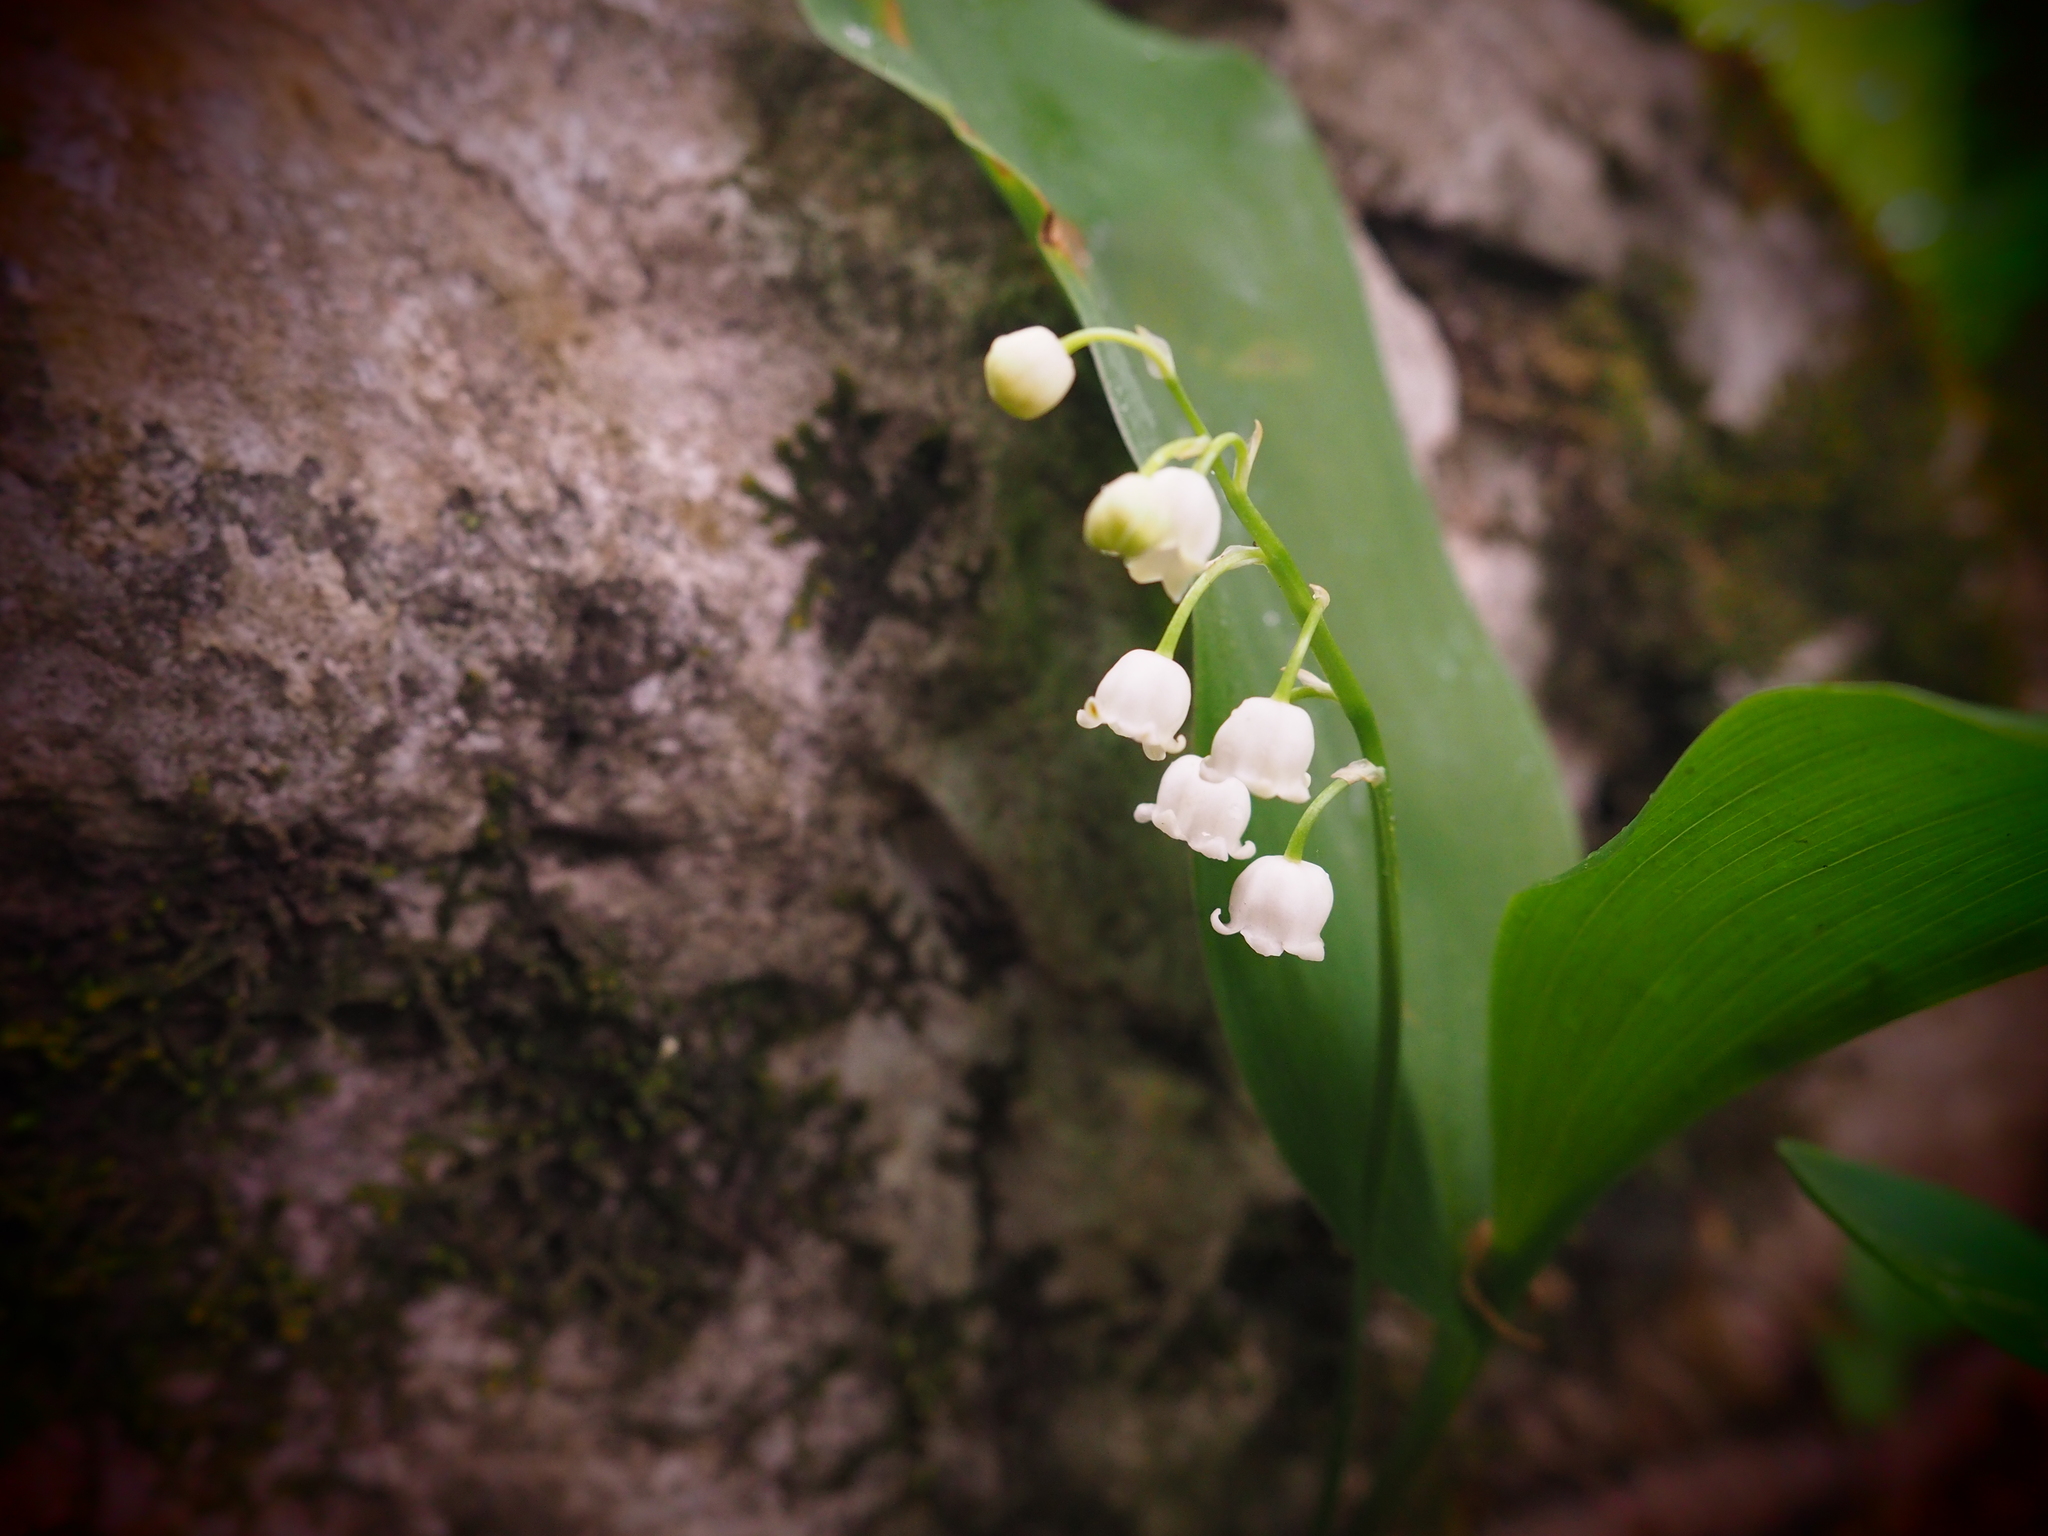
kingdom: Plantae
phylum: Tracheophyta
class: Liliopsida
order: Asparagales
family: Asparagaceae
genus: Convallaria
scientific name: Convallaria majalis
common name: Lily-of-the-valley
